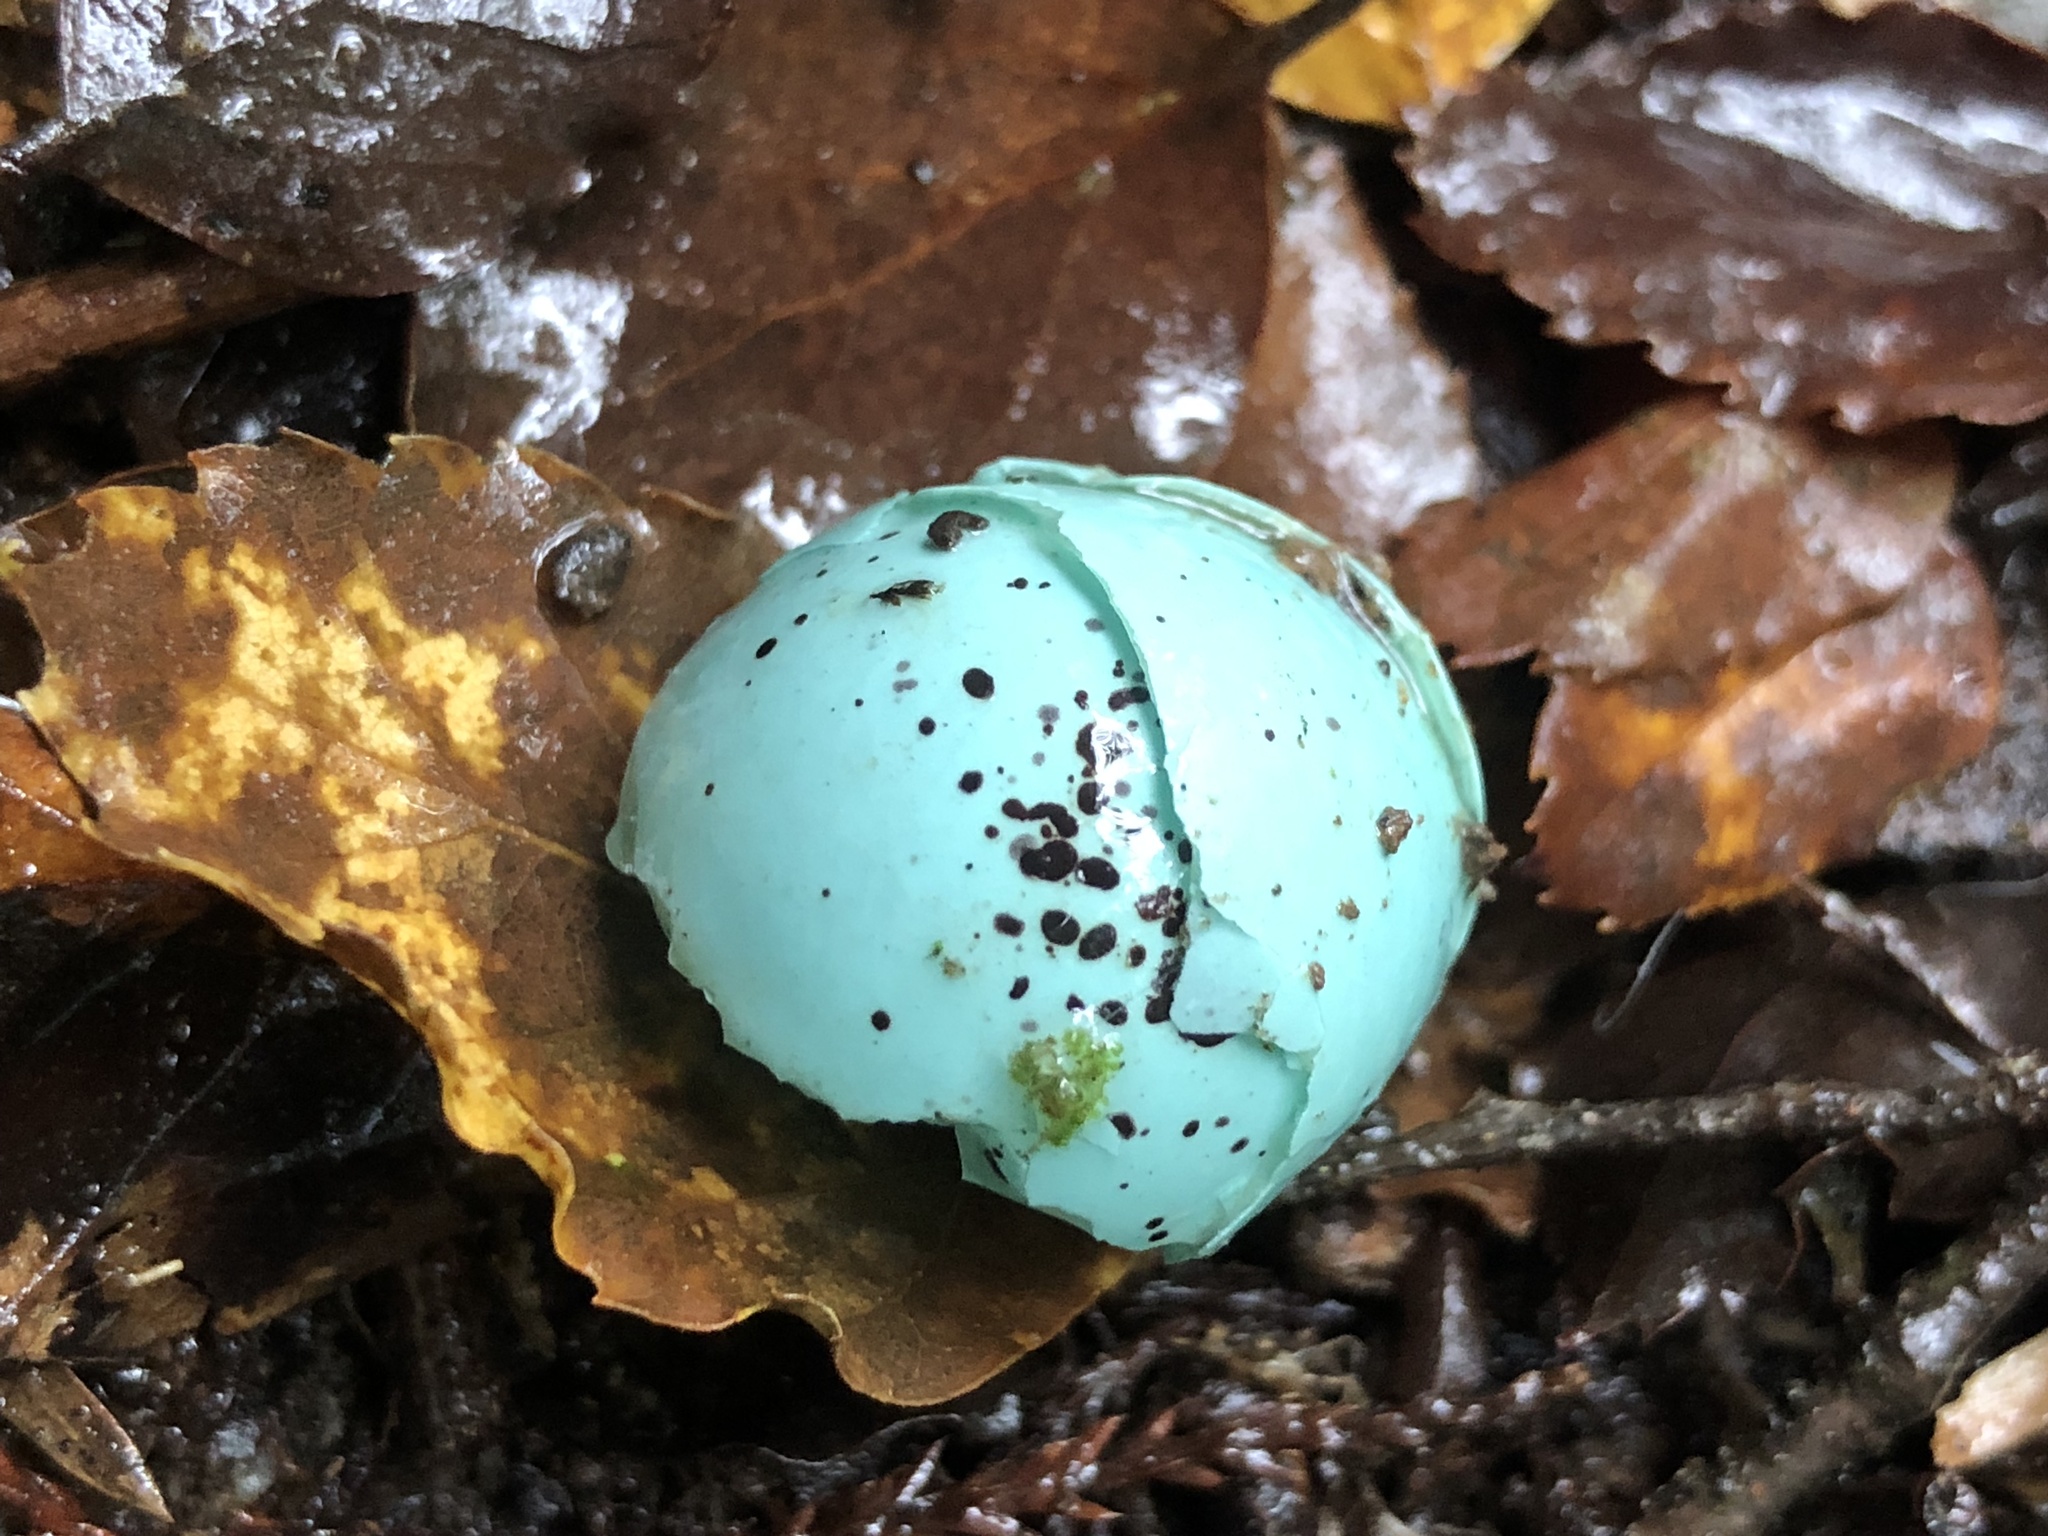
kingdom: Animalia
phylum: Chordata
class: Aves
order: Passeriformes
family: Turdidae
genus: Turdus
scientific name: Turdus philomelos
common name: Song thrush
